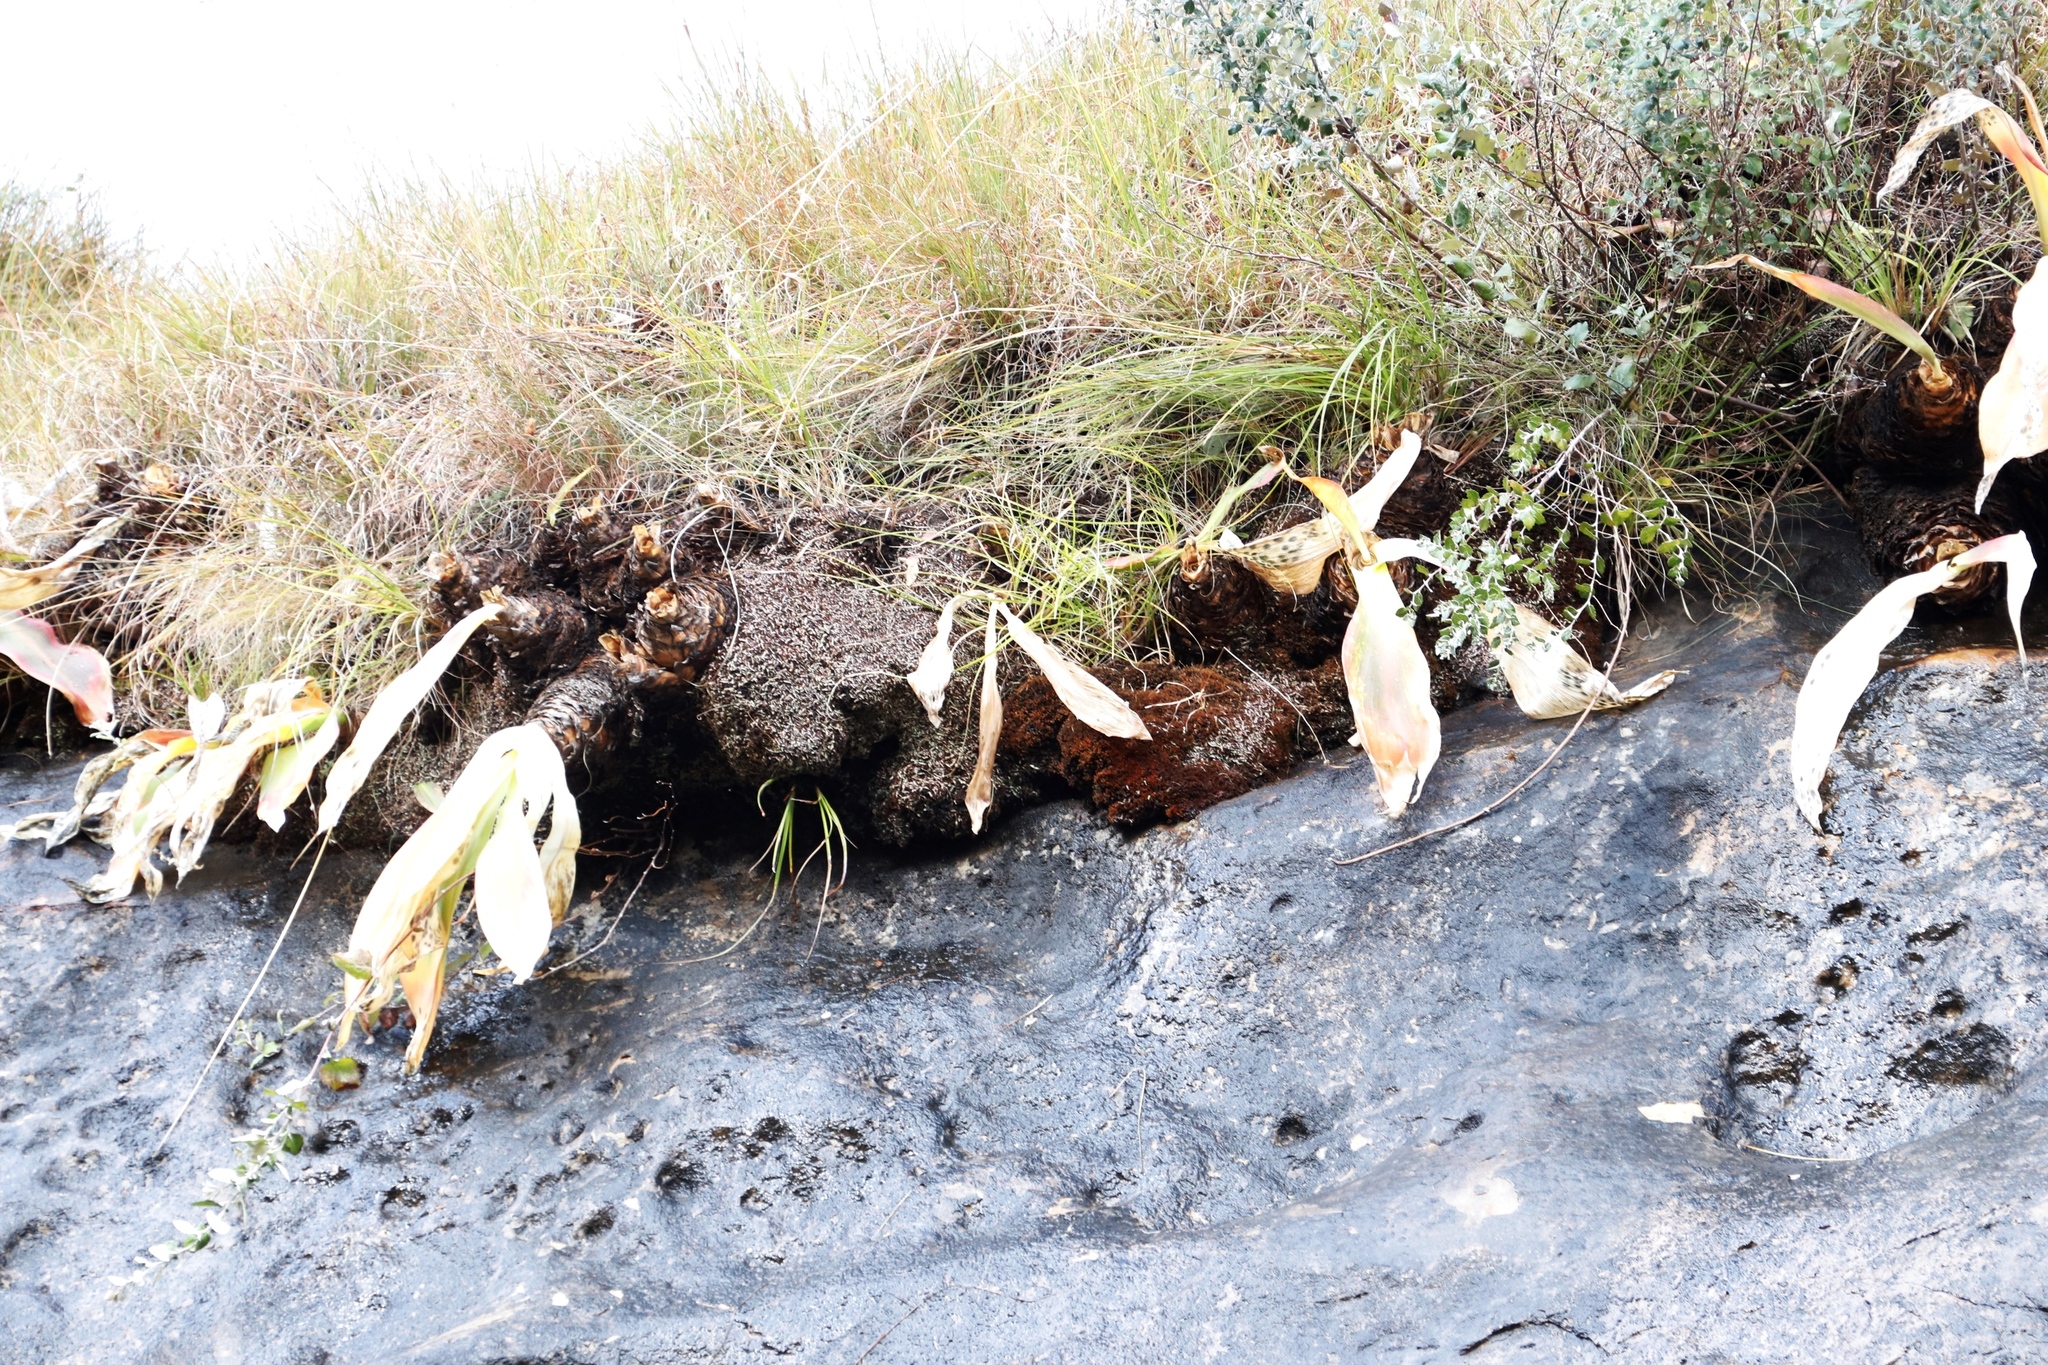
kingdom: Plantae
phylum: Tracheophyta
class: Liliopsida
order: Asparagales
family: Asparagaceae
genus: Merwilla
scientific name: Merwilla plumbea
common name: Blue-squill
